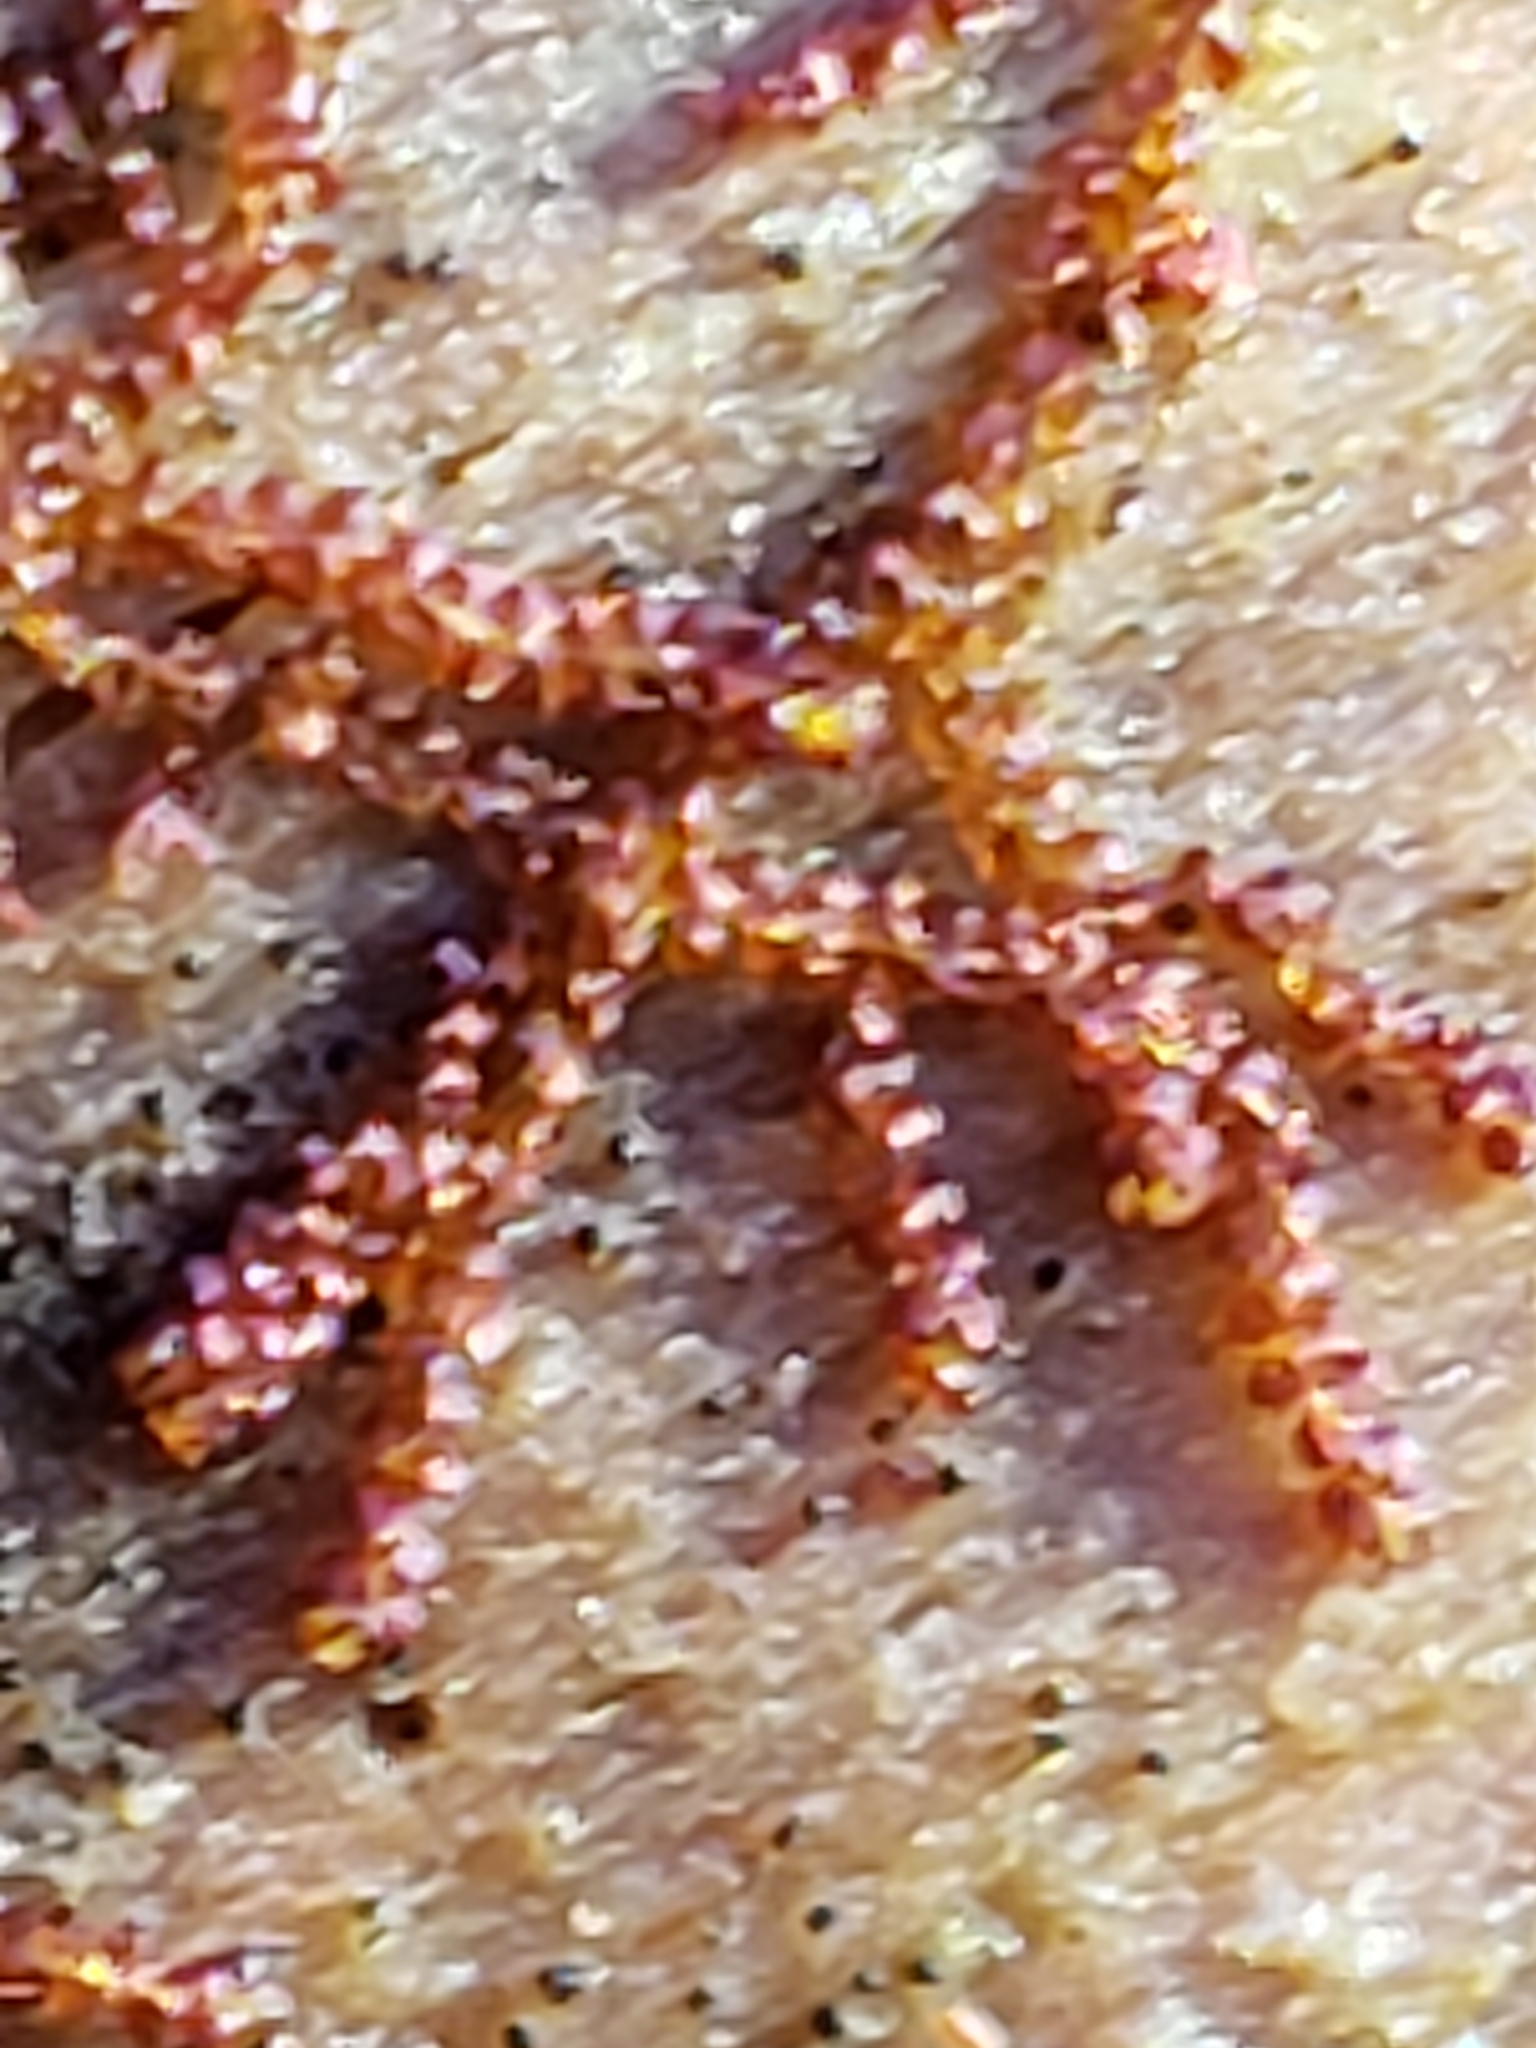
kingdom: Plantae
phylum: Marchantiophyta
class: Jungermanniopsida
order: Jungermanniales
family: Cephaloziaceae
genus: Nowellia
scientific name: Nowellia curvifolia
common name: Wood rustwort
